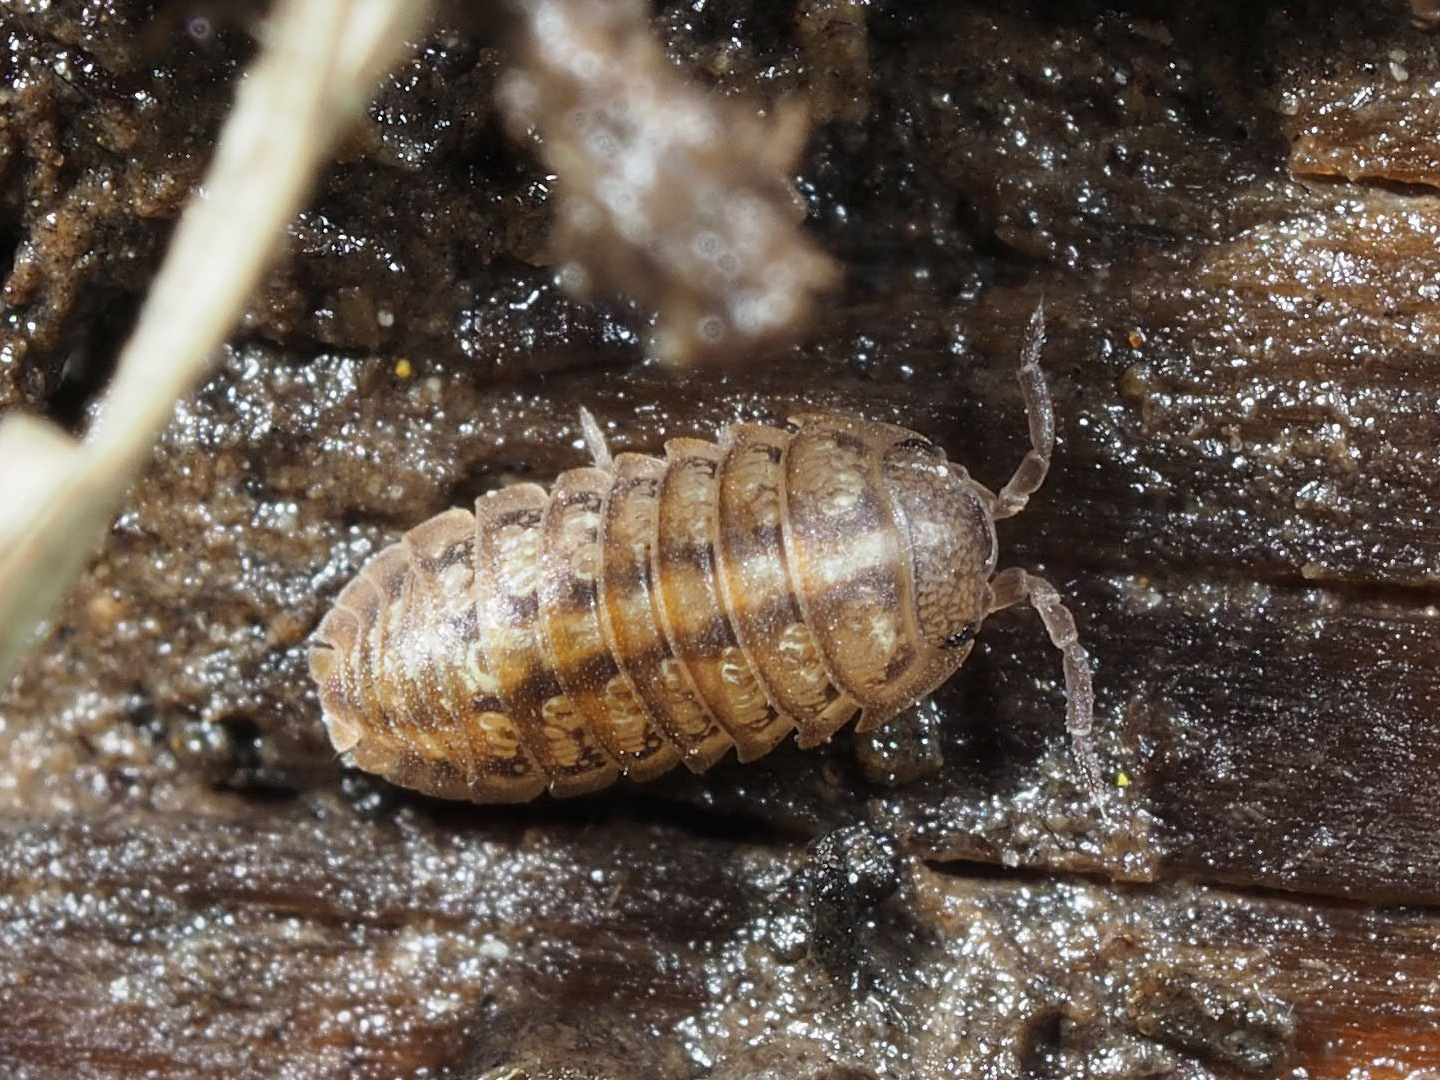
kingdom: Animalia
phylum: Arthropoda
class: Malacostraca
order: Isopoda
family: Armadillidiidae
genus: Armadillidium
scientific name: Armadillidium decorum
